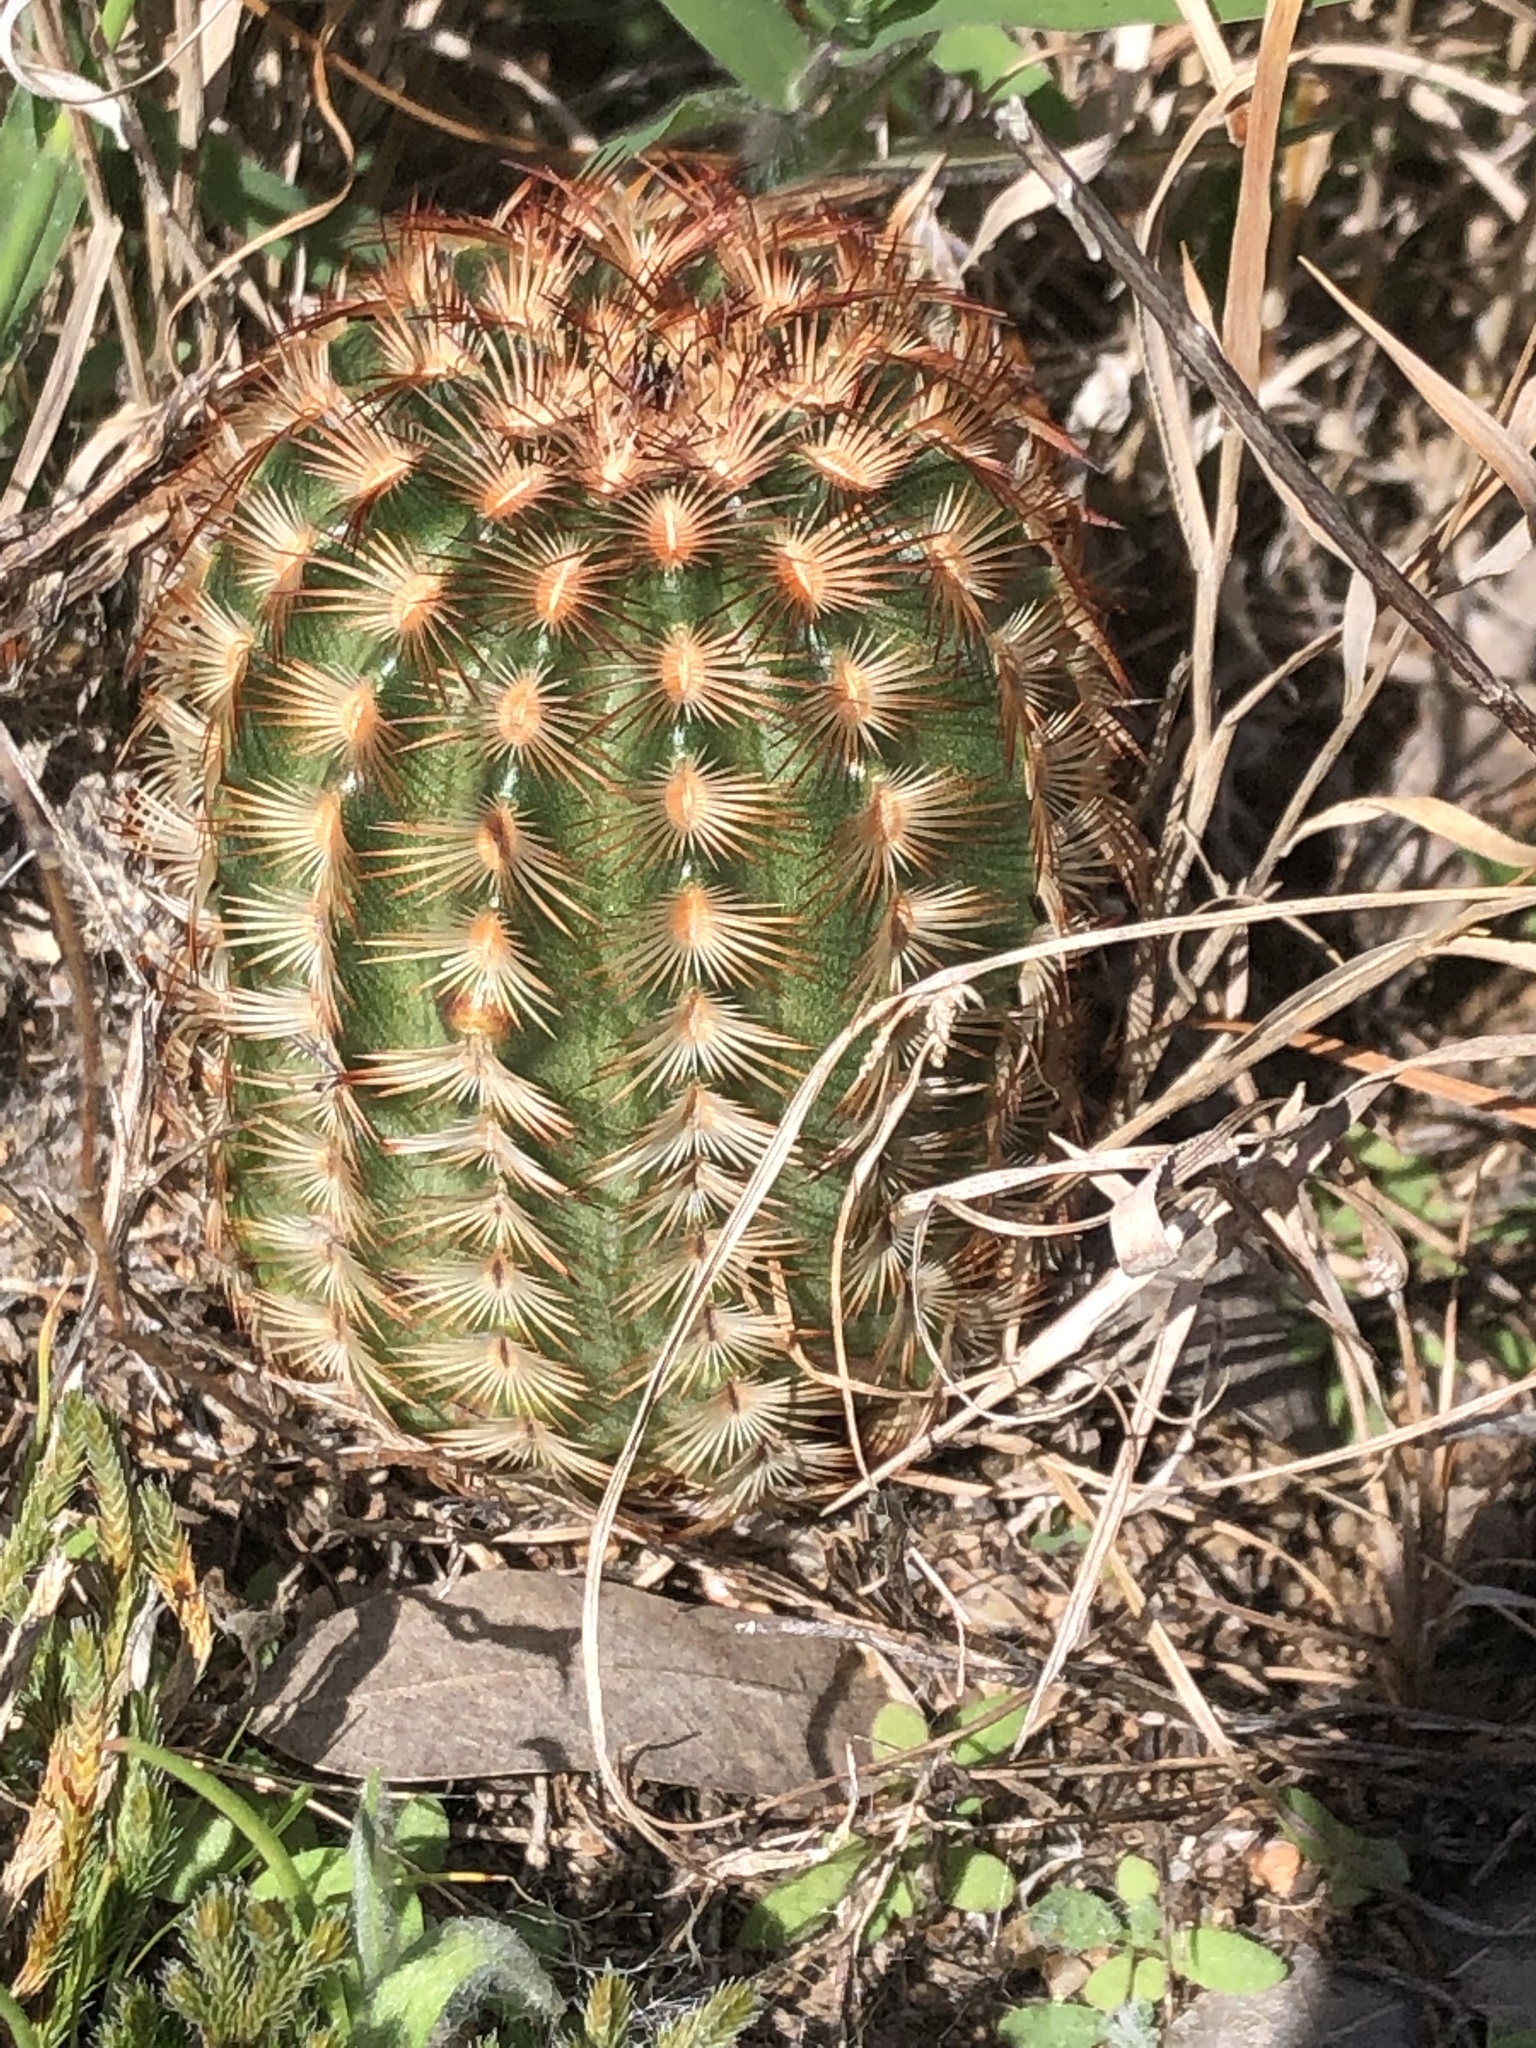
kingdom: Plantae
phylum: Tracheophyta
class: Magnoliopsida
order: Caryophyllales
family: Cactaceae
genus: Echinocereus
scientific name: Echinocereus reichenbachii
